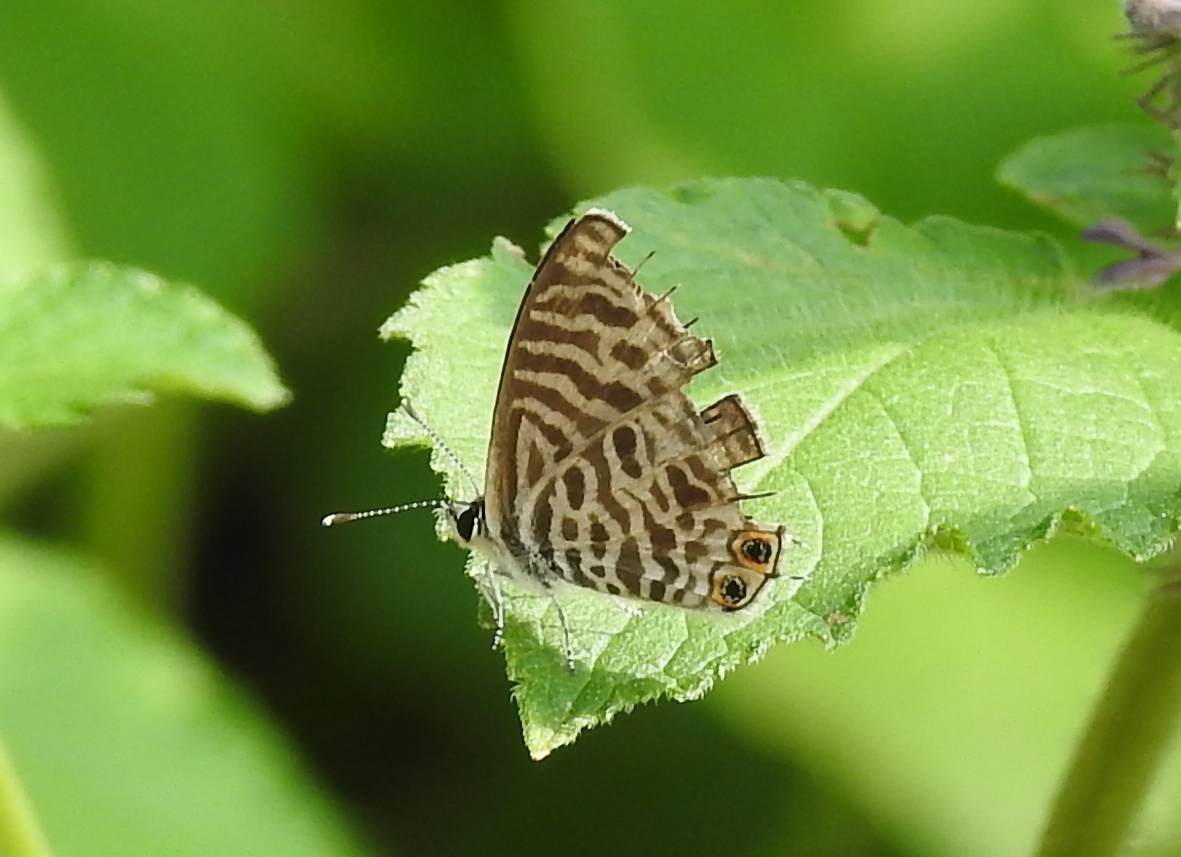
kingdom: Animalia
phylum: Arthropoda
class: Insecta
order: Lepidoptera
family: Lycaenidae
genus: Leptotes
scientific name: Leptotes plinius
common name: Zebra blue
